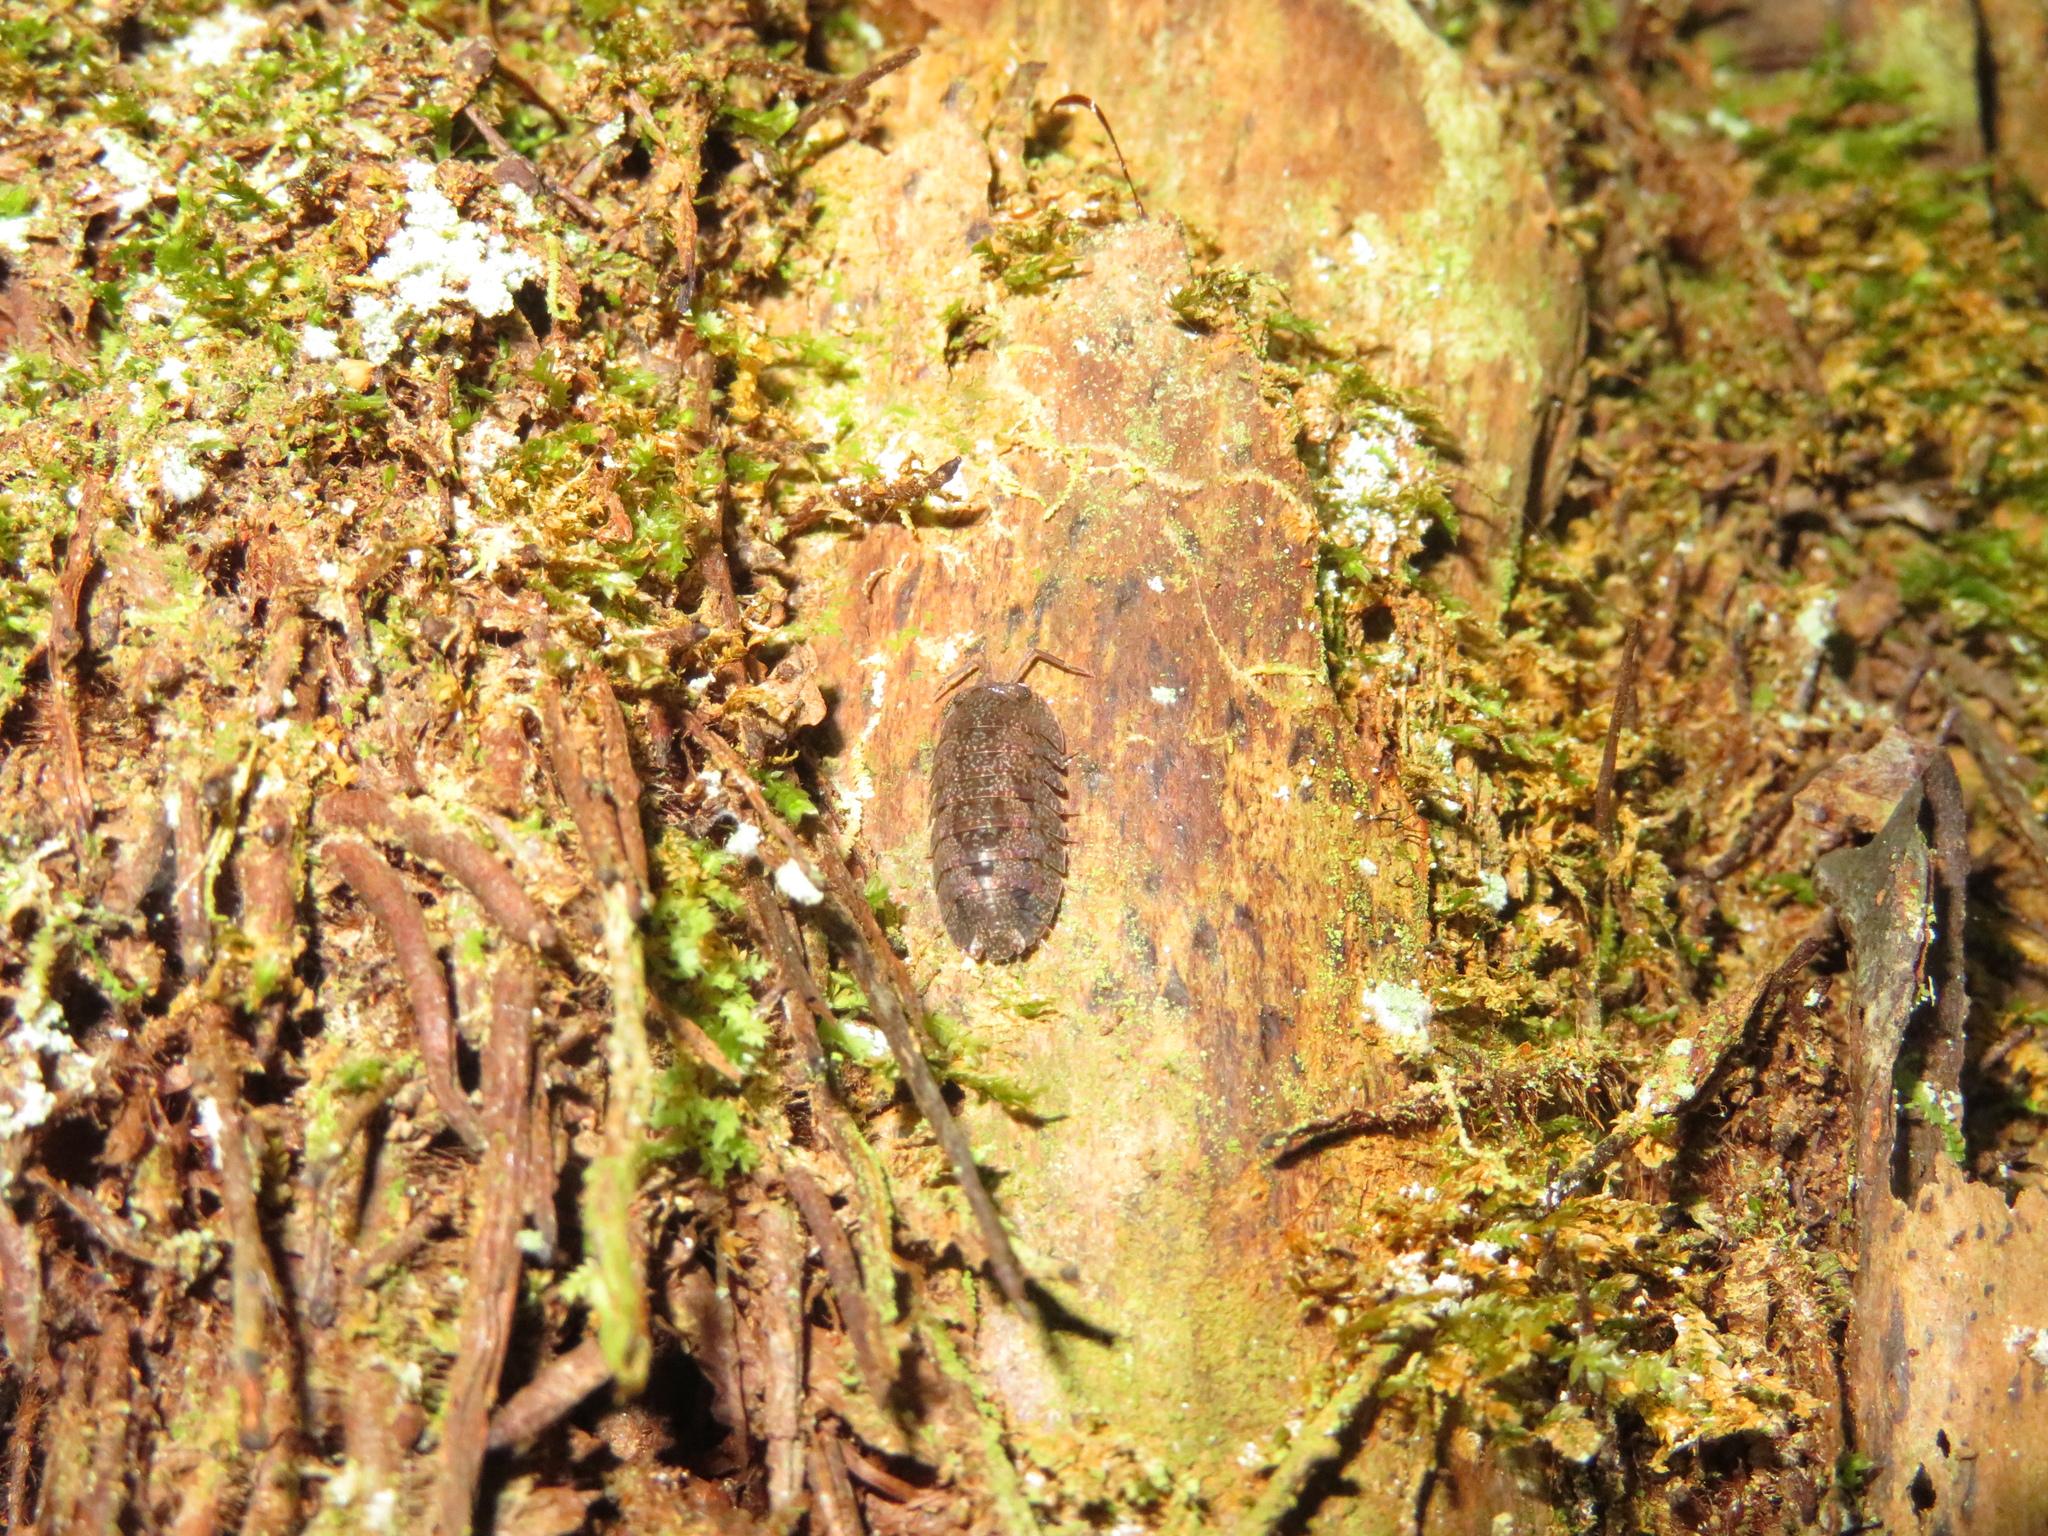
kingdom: Animalia
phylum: Arthropoda
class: Malacostraca
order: Isopoda
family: Armadillidae
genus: Cubaris
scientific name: Cubaris tarangensis
